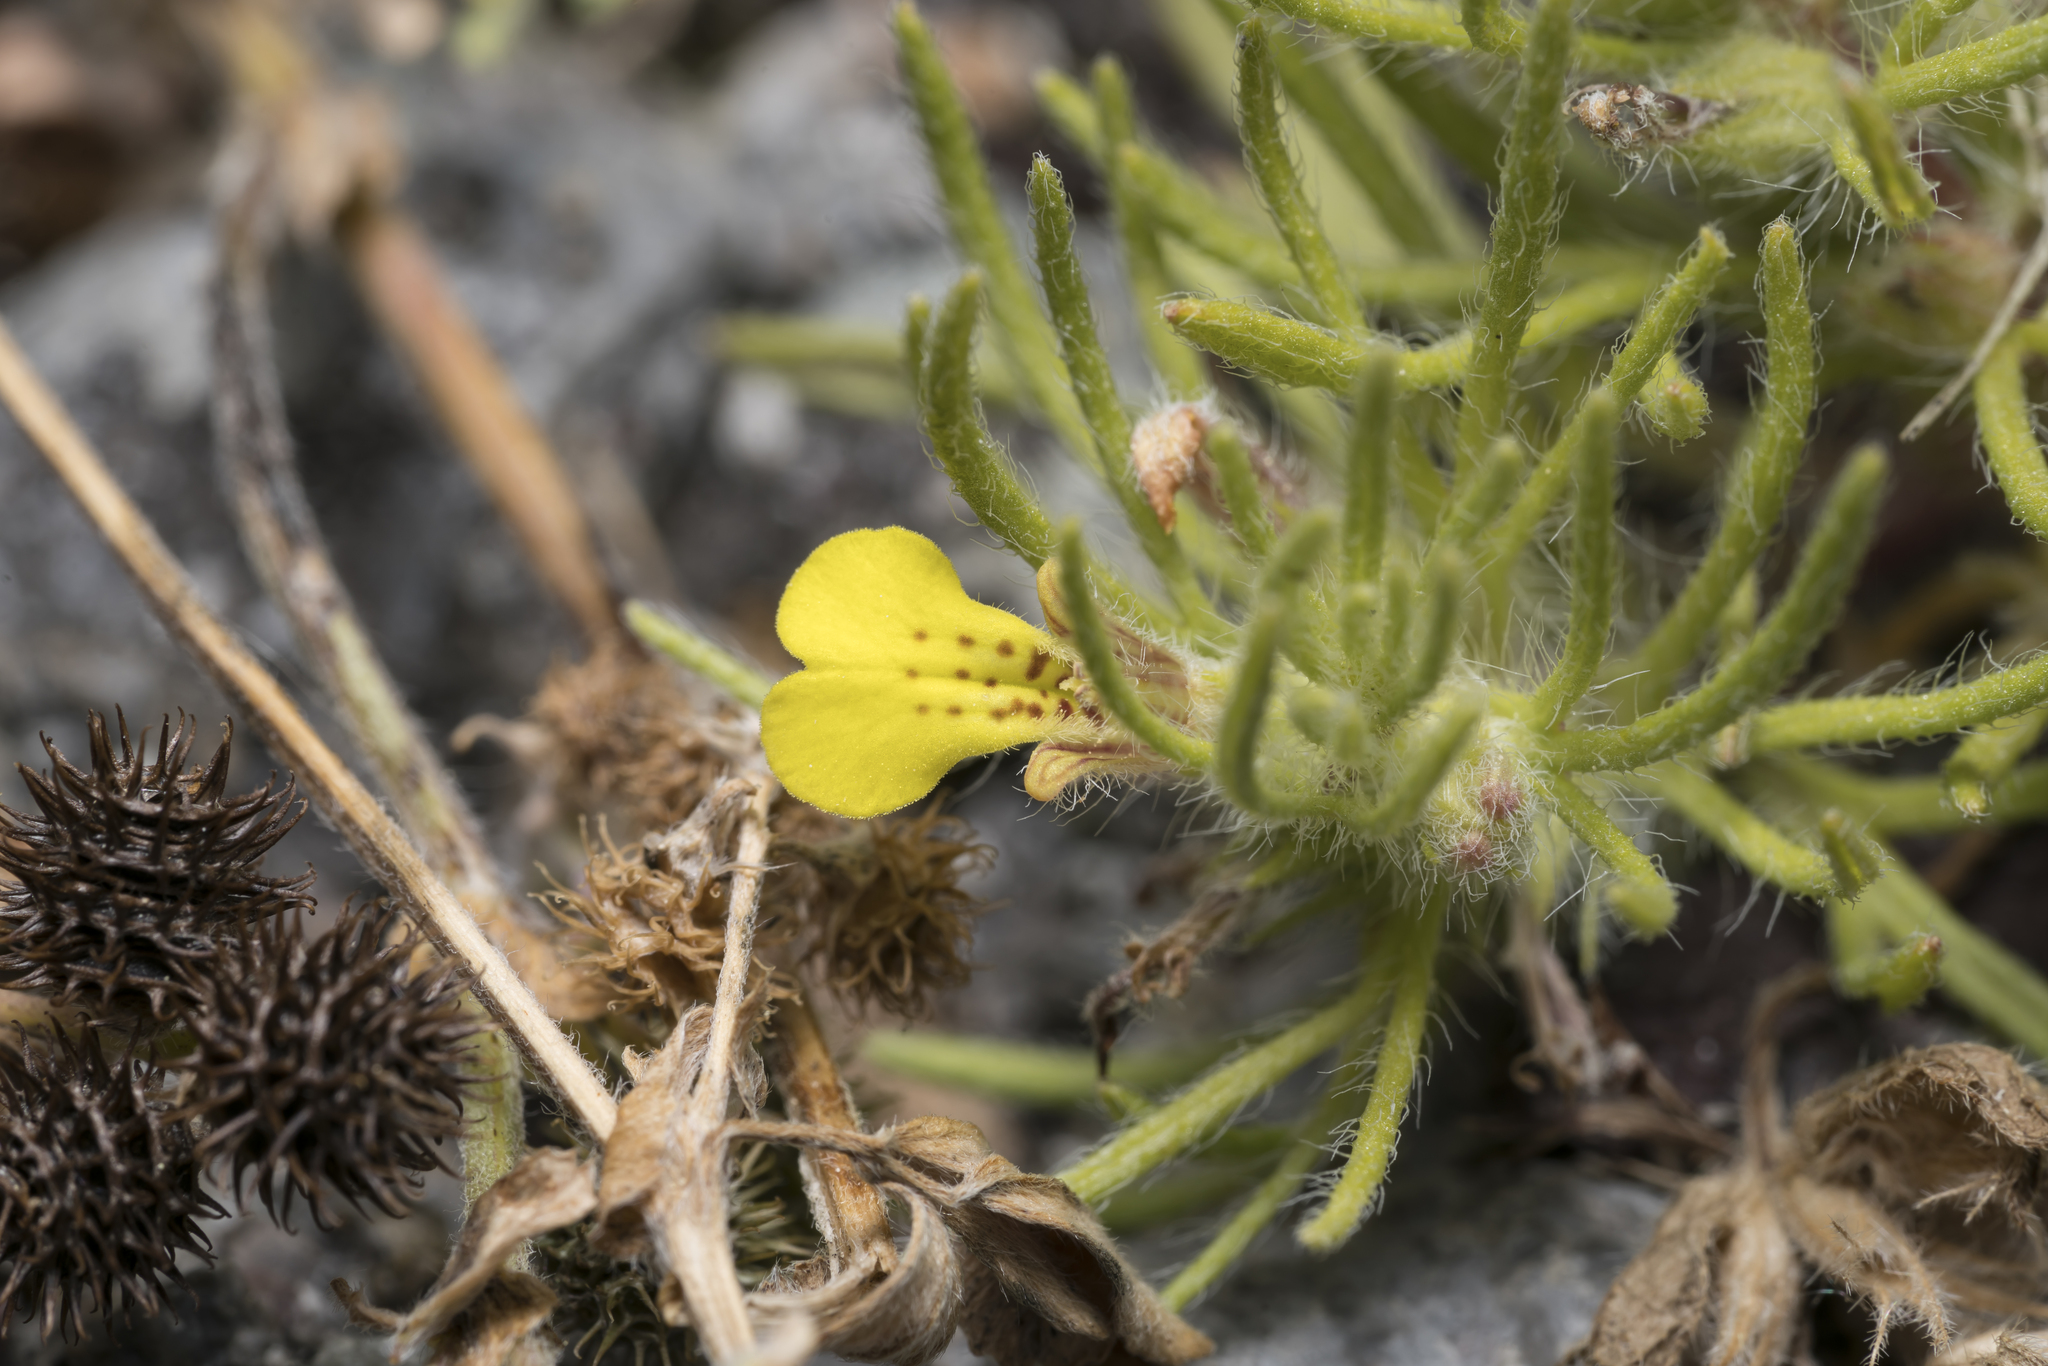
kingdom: Plantae
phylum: Tracheophyta
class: Magnoliopsida
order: Lamiales
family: Lamiaceae
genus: Ajuga
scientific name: Ajuga chamaepitys
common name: Ground-pine
